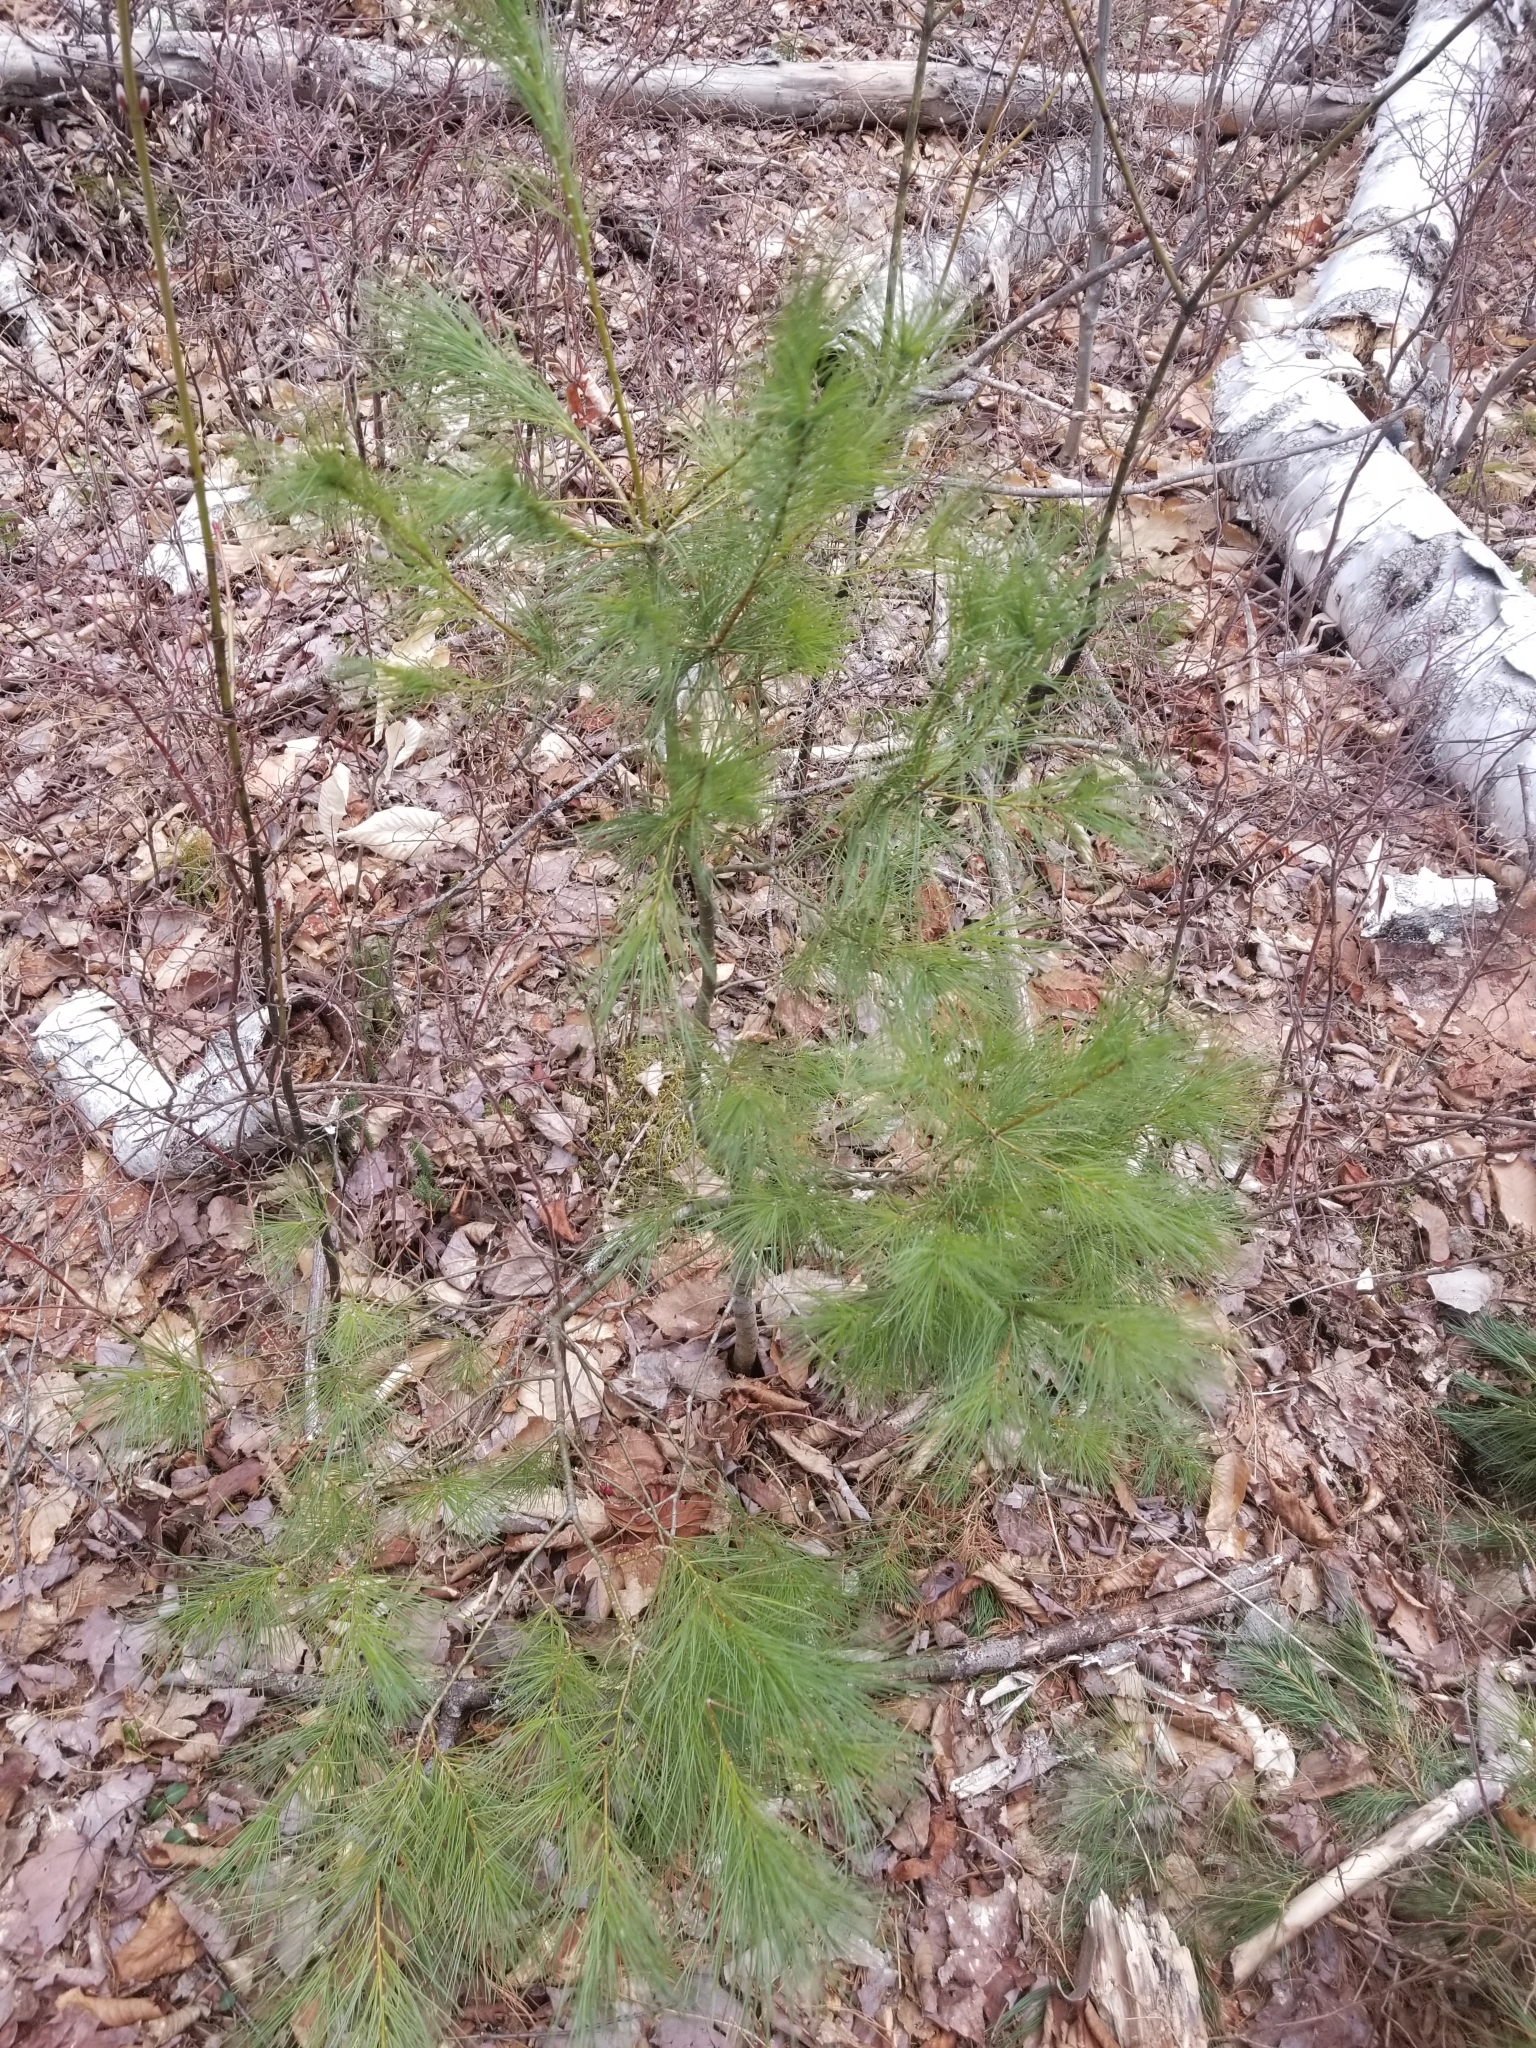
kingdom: Plantae
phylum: Tracheophyta
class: Pinopsida
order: Pinales
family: Pinaceae
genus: Pinus
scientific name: Pinus strobus
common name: Weymouth pine
